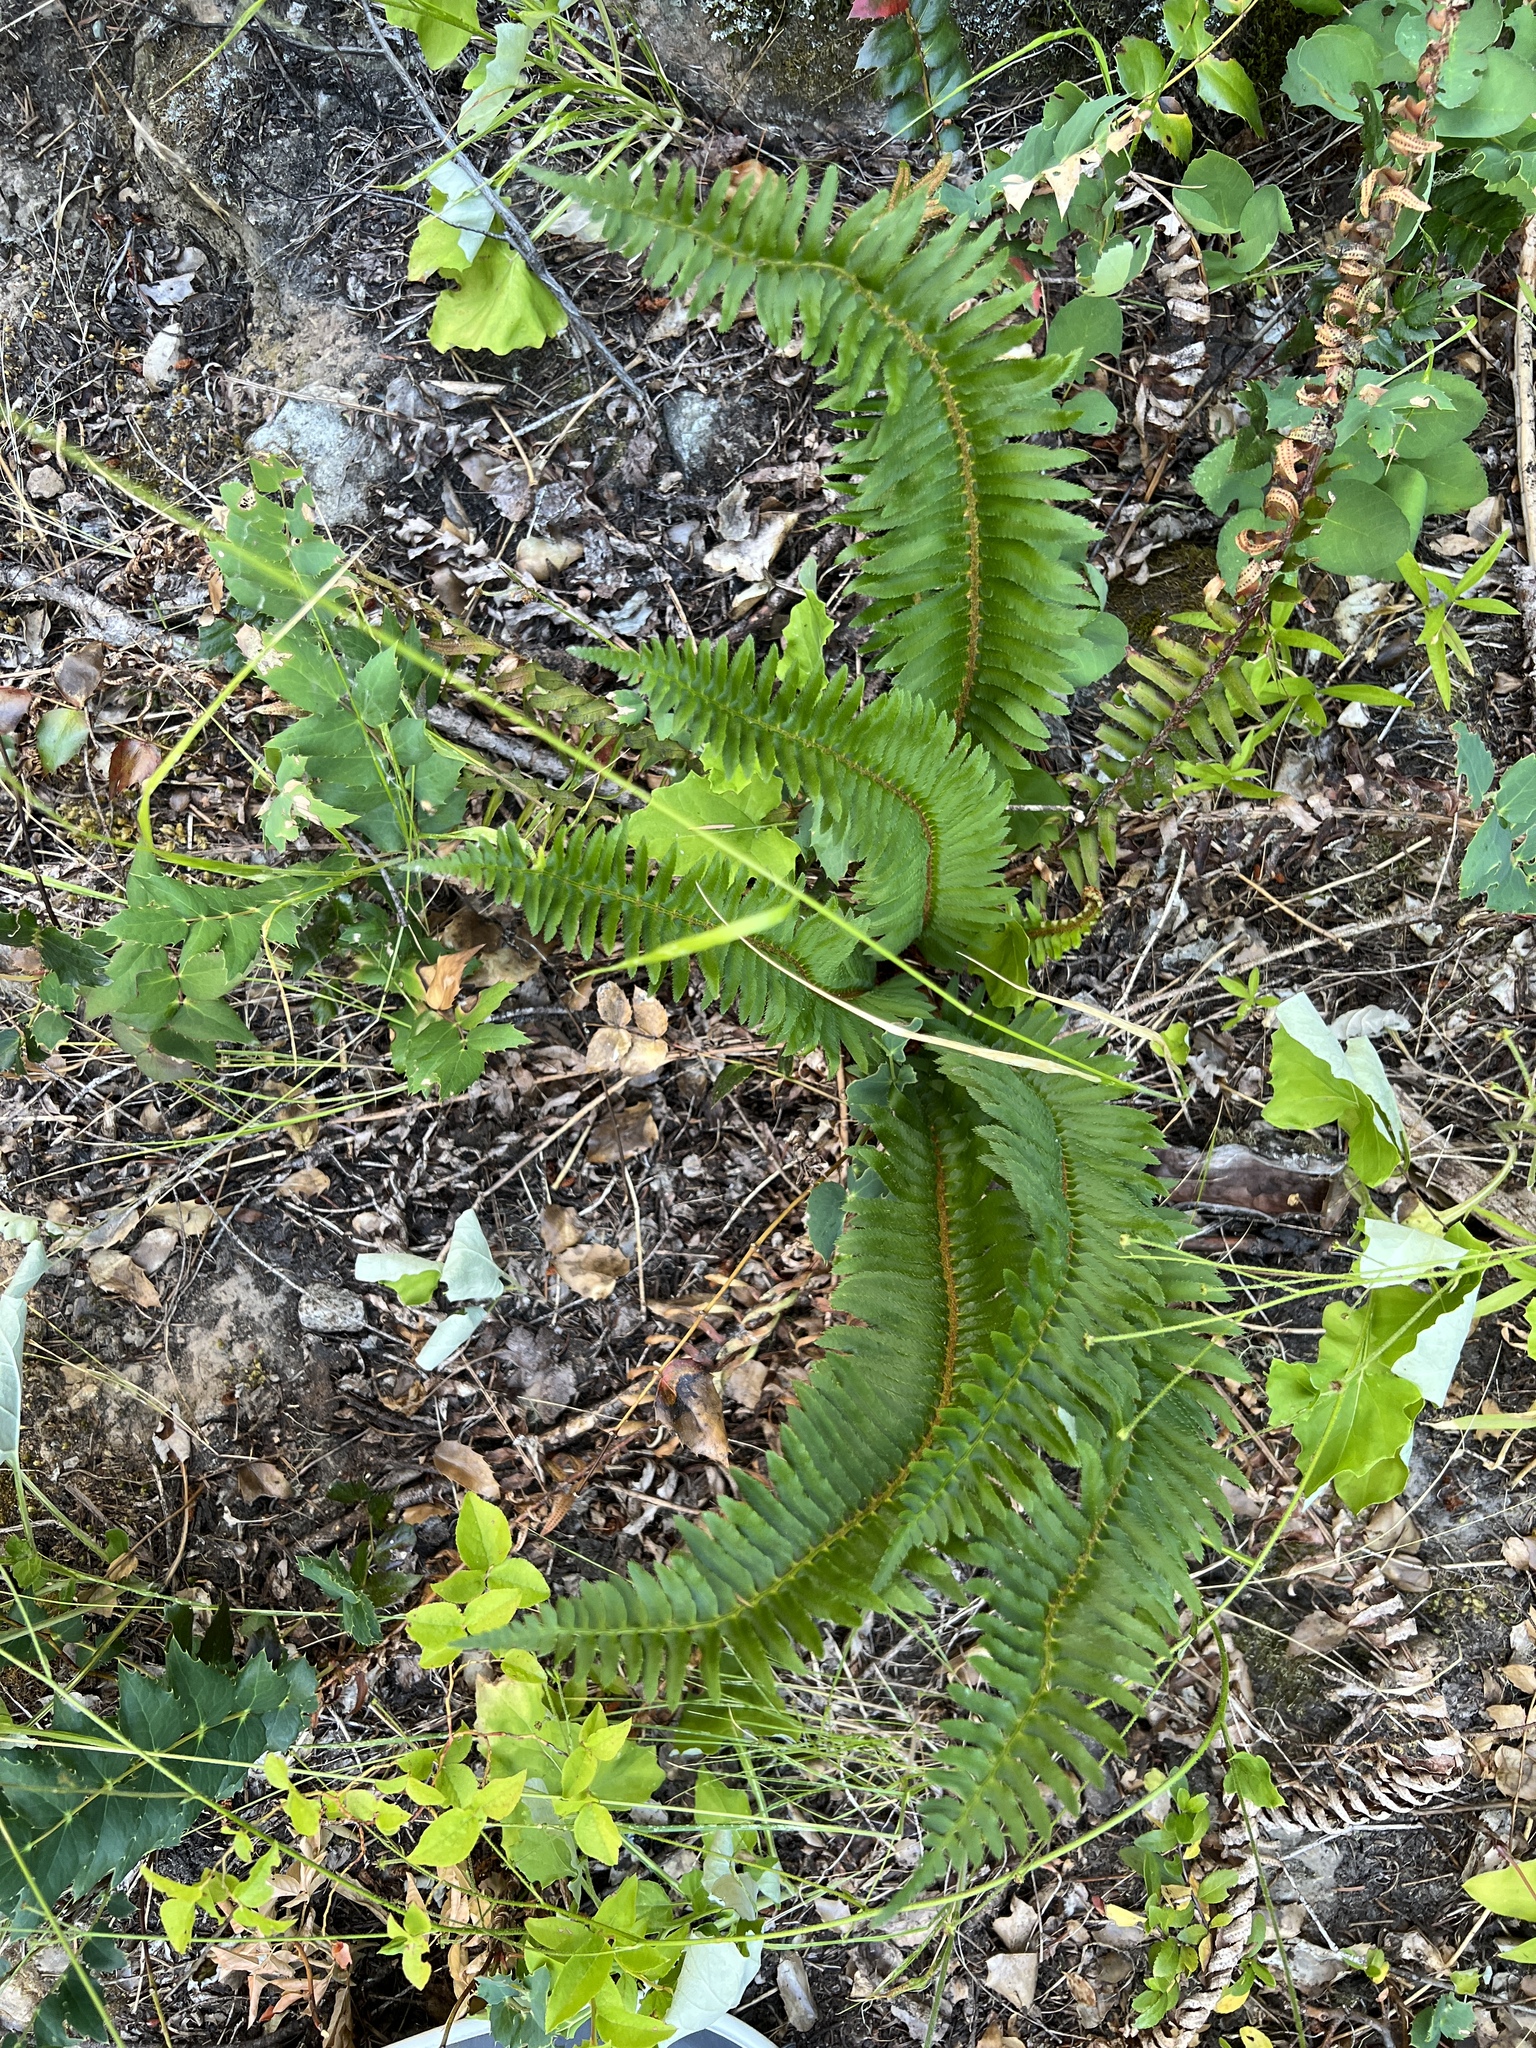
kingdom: Plantae
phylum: Tracheophyta
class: Polypodiopsida
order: Polypodiales
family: Dryopteridaceae
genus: Polystichum
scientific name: Polystichum munitum
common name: Western sword-fern
